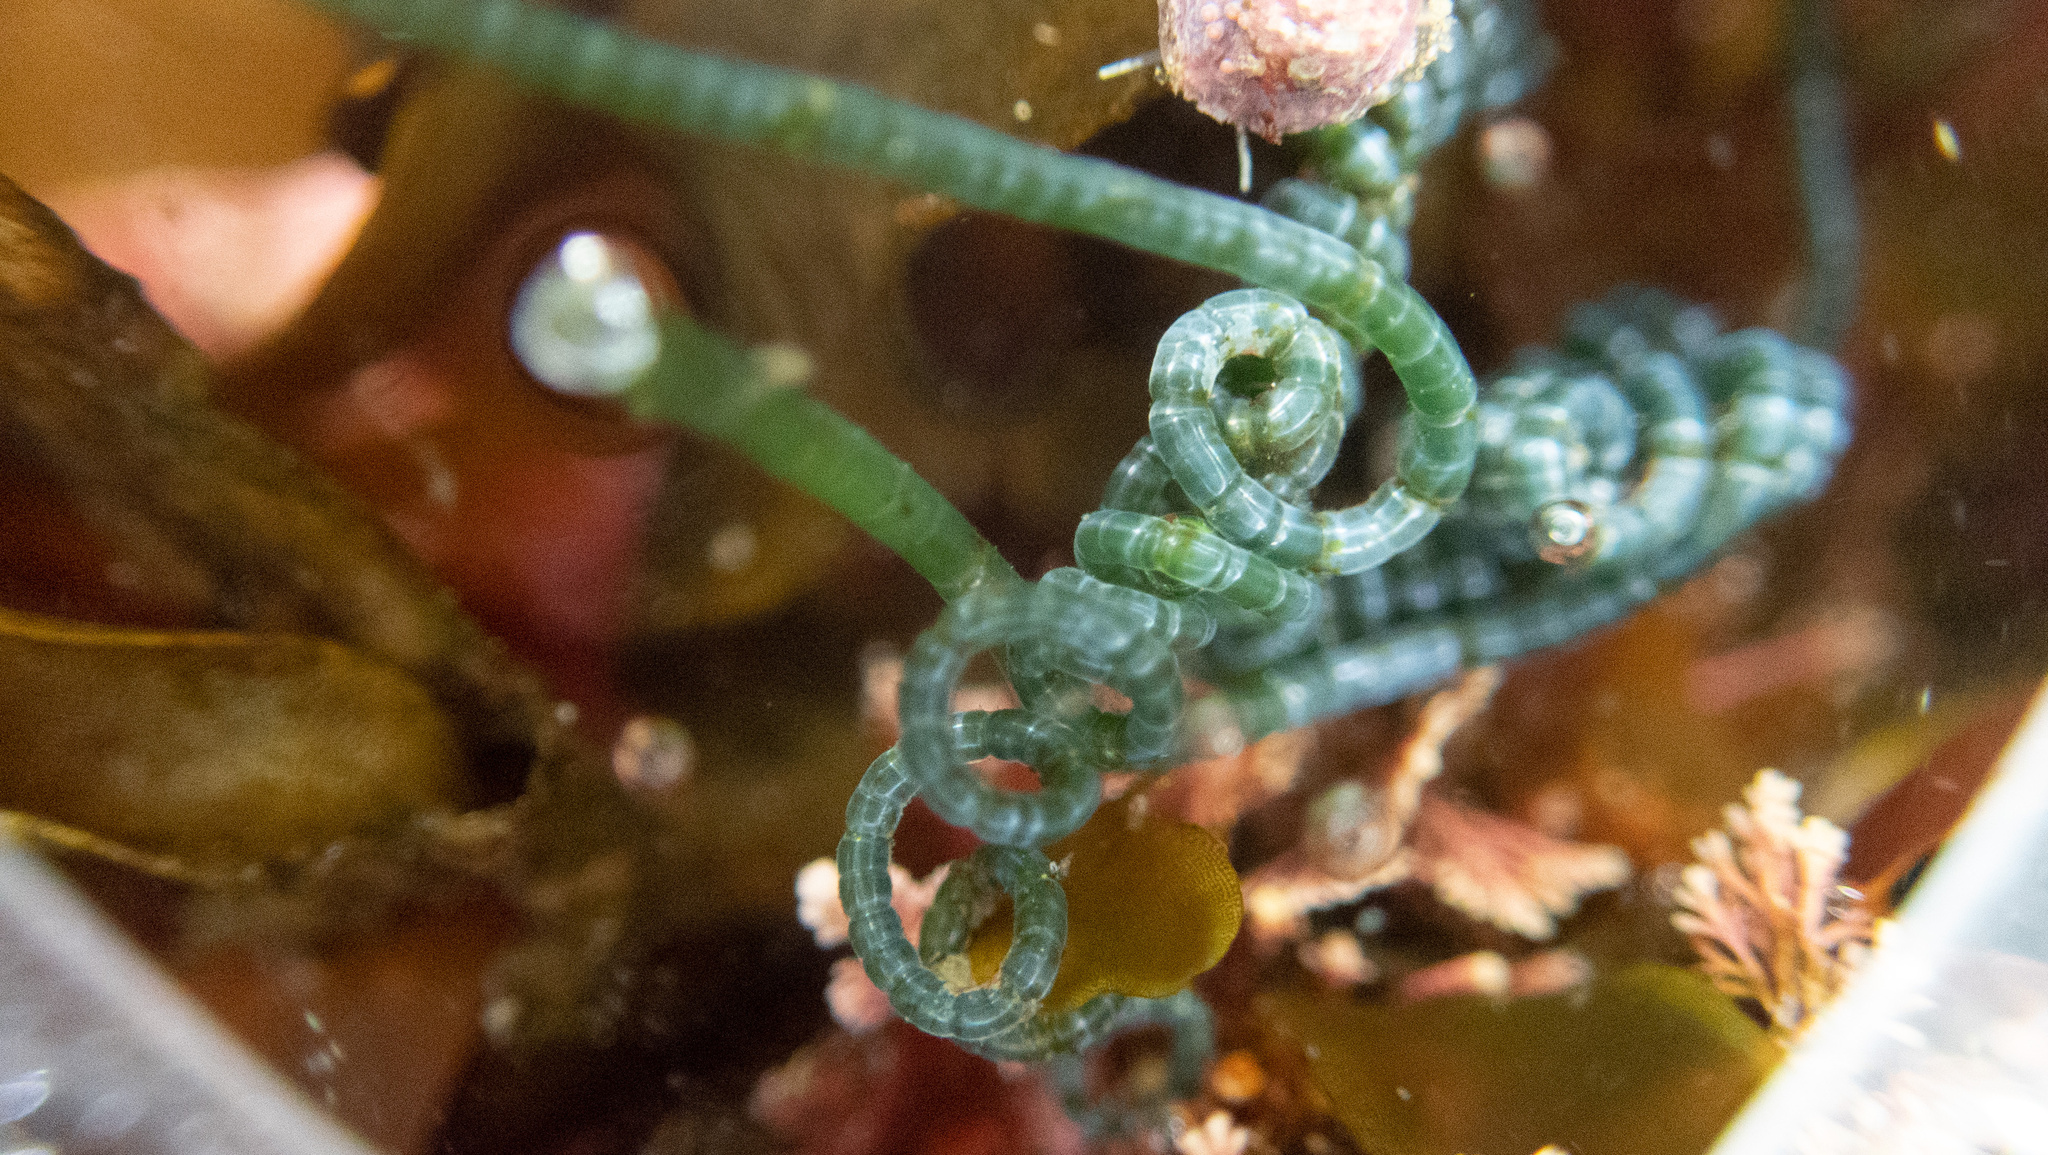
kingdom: Plantae
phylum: Chlorophyta
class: Ulvophyceae
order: Cladophorales
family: Cladophoraceae
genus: Chaetomorpha
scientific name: Chaetomorpha spiralis
